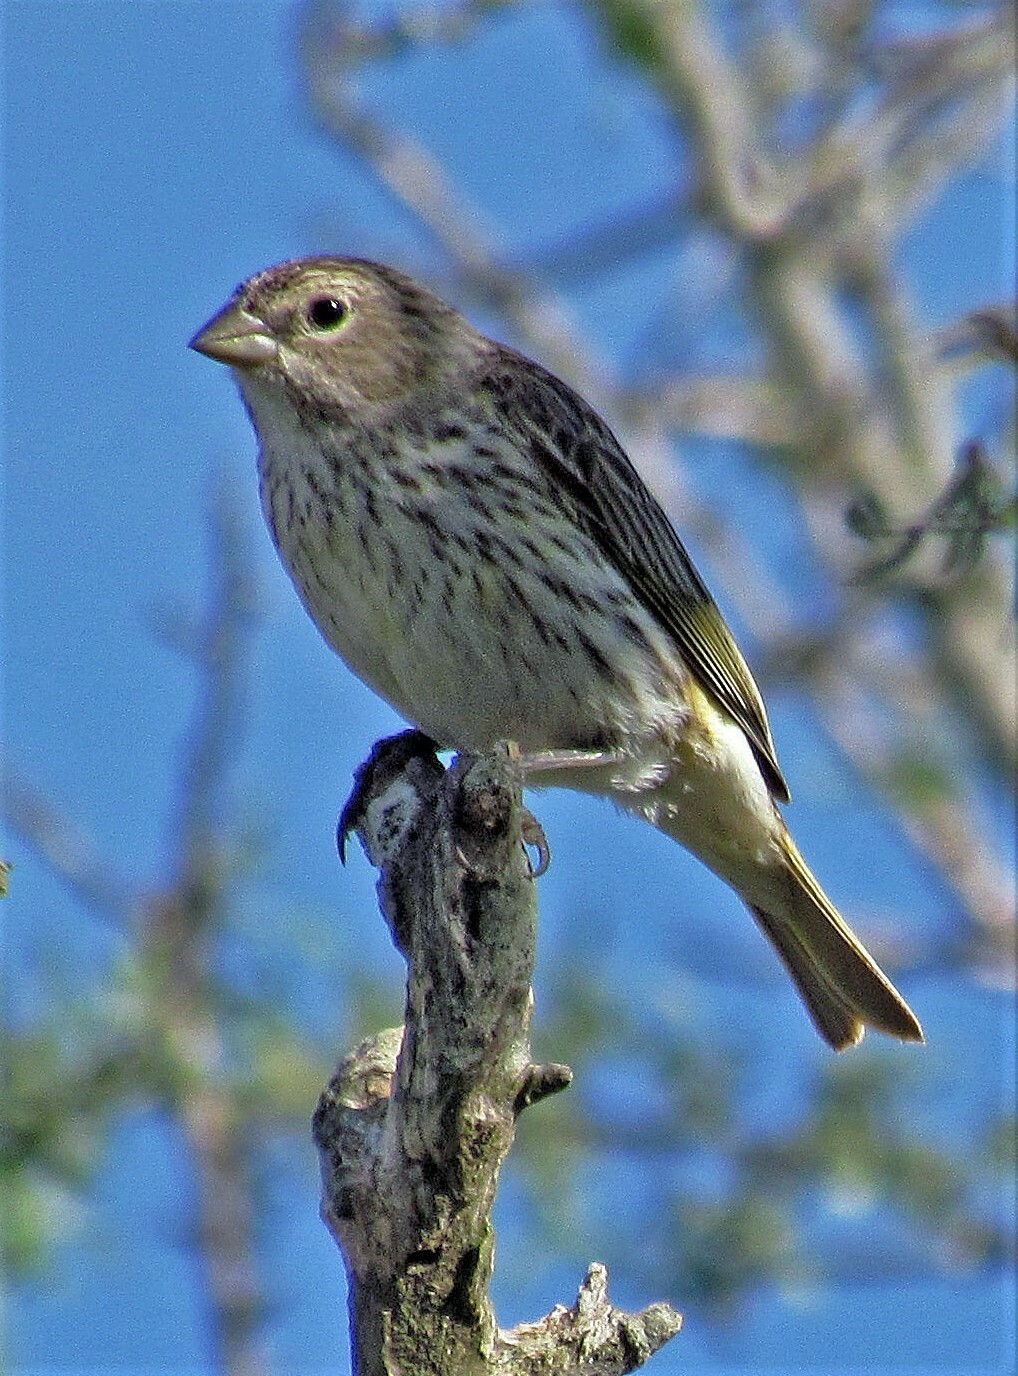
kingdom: Animalia
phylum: Chordata
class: Aves
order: Passeriformes
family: Thraupidae
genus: Sicalis
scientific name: Sicalis flaveola
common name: Saffron finch
